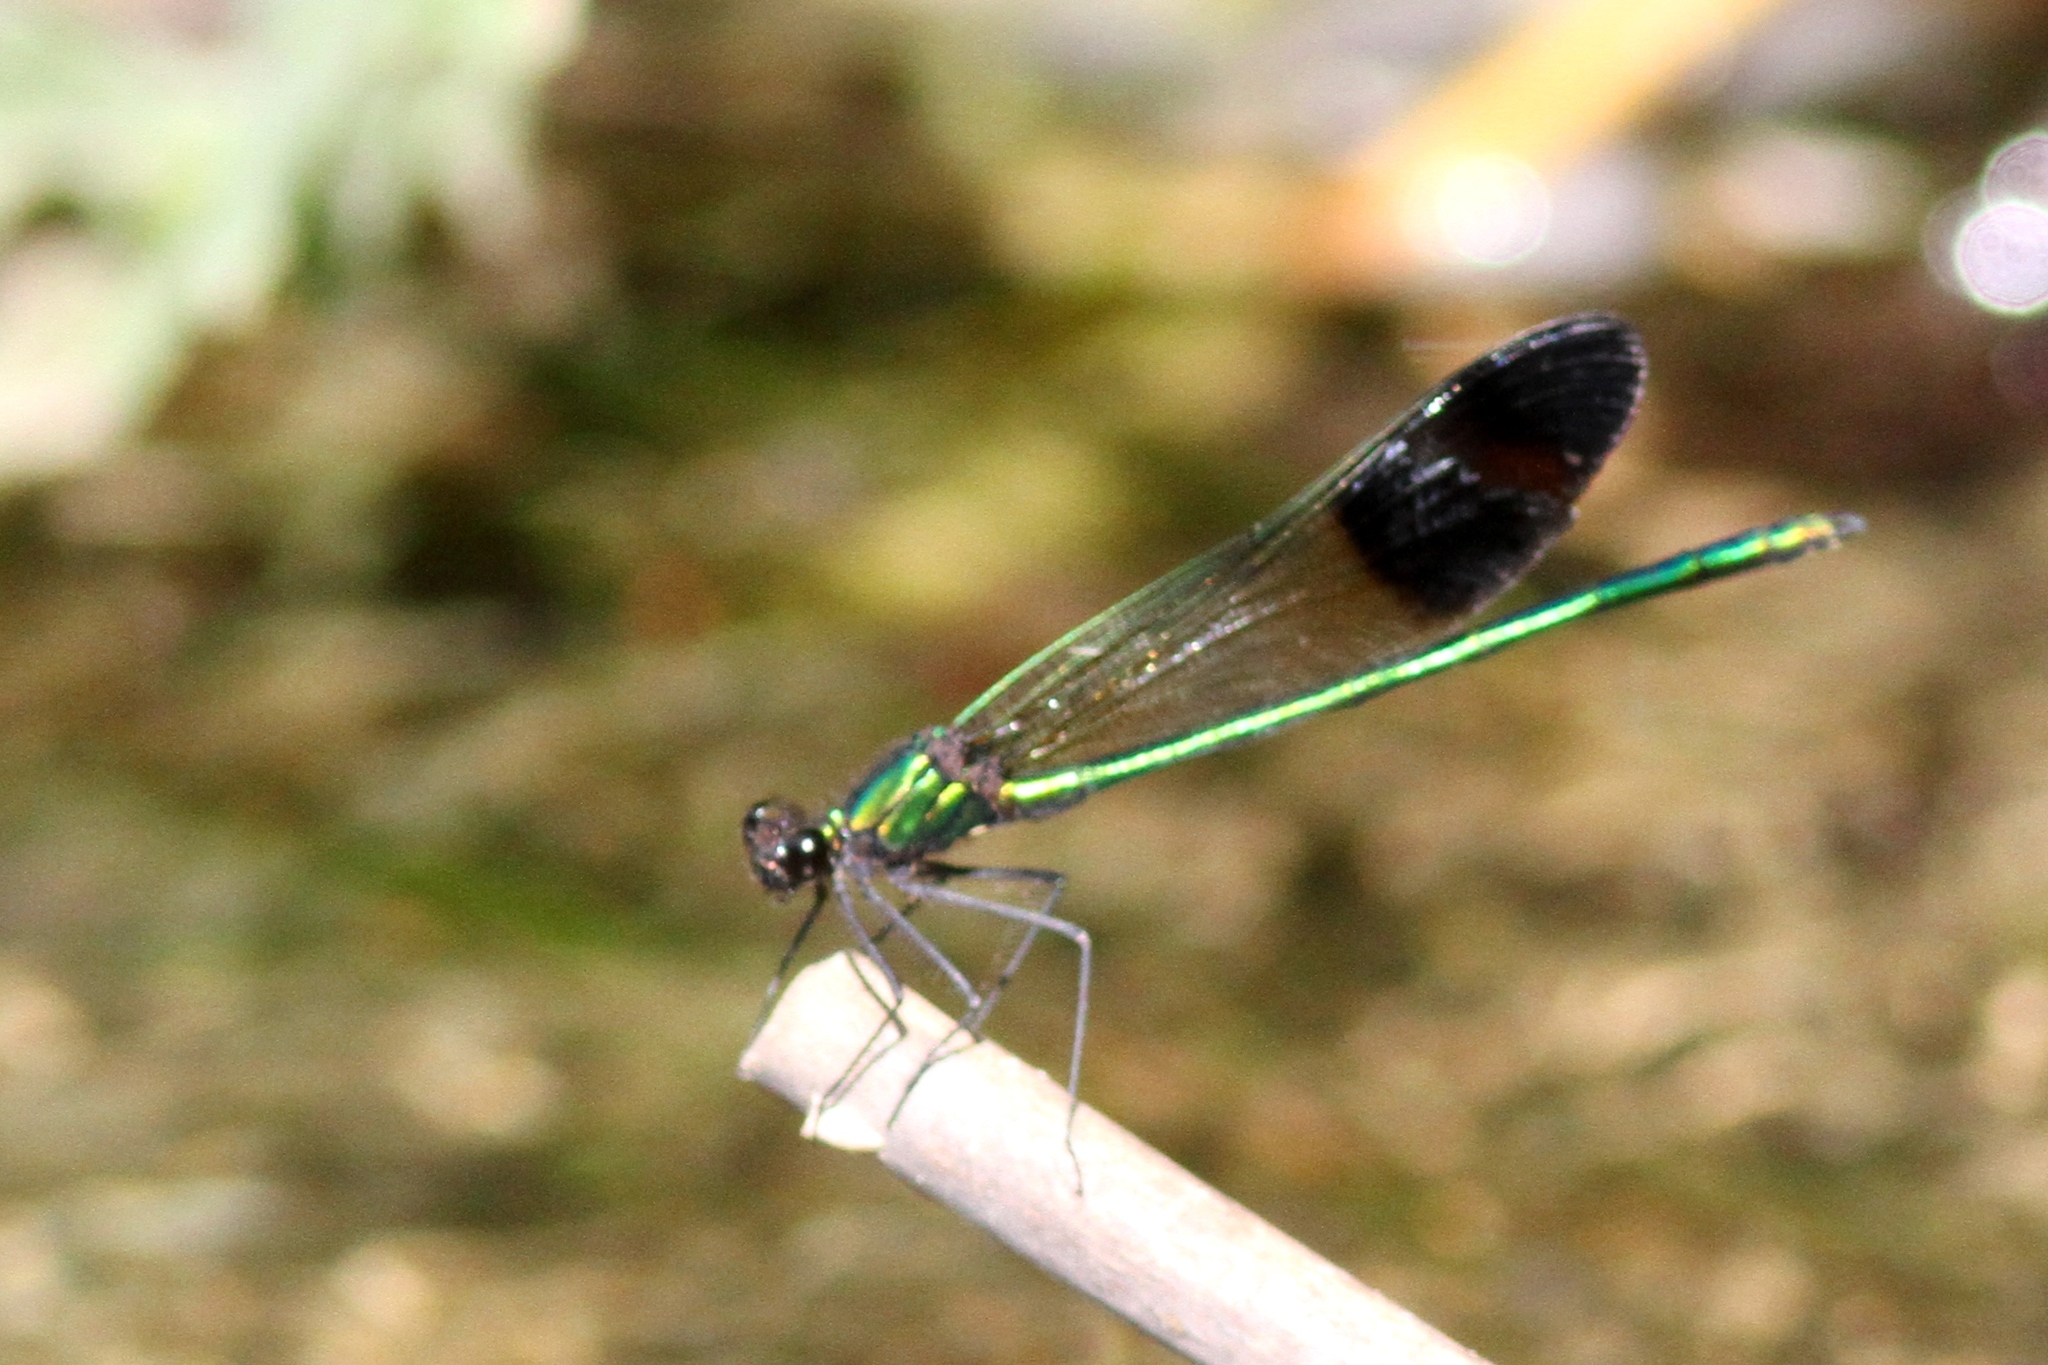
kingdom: Animalia
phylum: Arthropoda
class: Insecta
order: Odonata
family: Calopterygidae
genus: Calopteryx
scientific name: Calopteryx aequabilis
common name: River jewelwing
